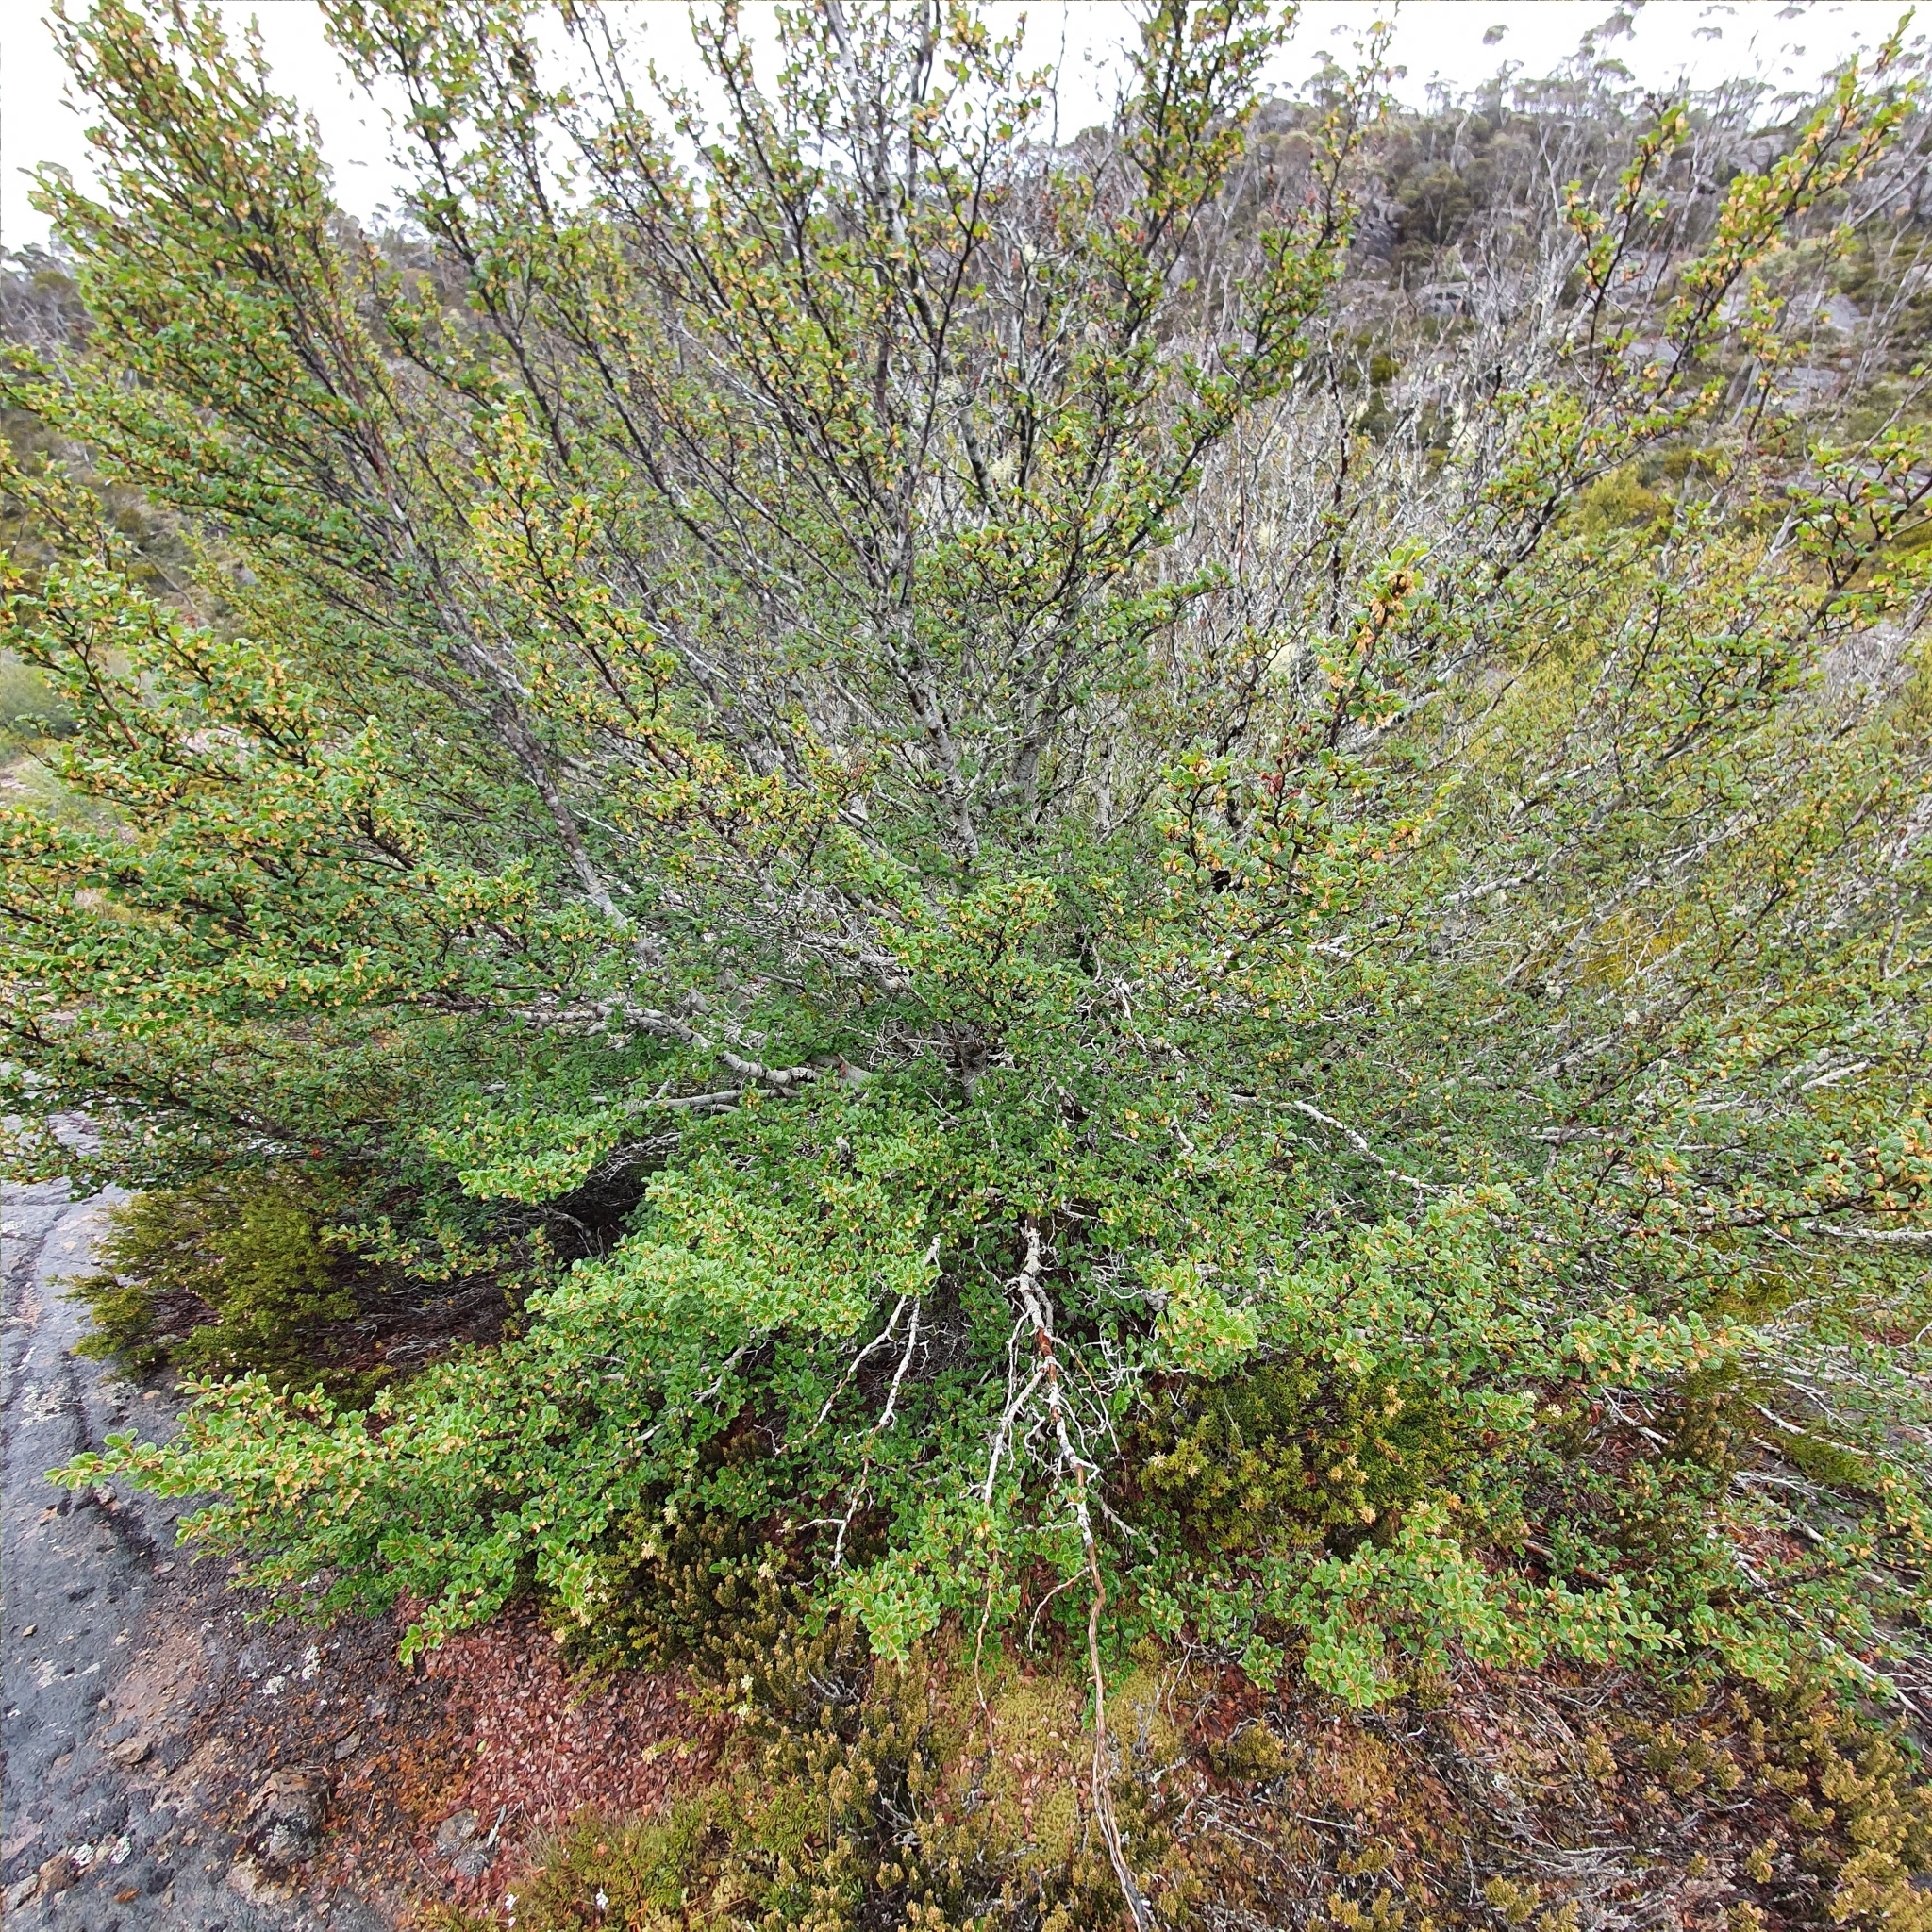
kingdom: Plantae
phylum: Tracheophyta
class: Magnoliopsida
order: Fagales
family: Nothofagaceae
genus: Nothofagus
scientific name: Nothofagus gunnii
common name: Tanglefoot
